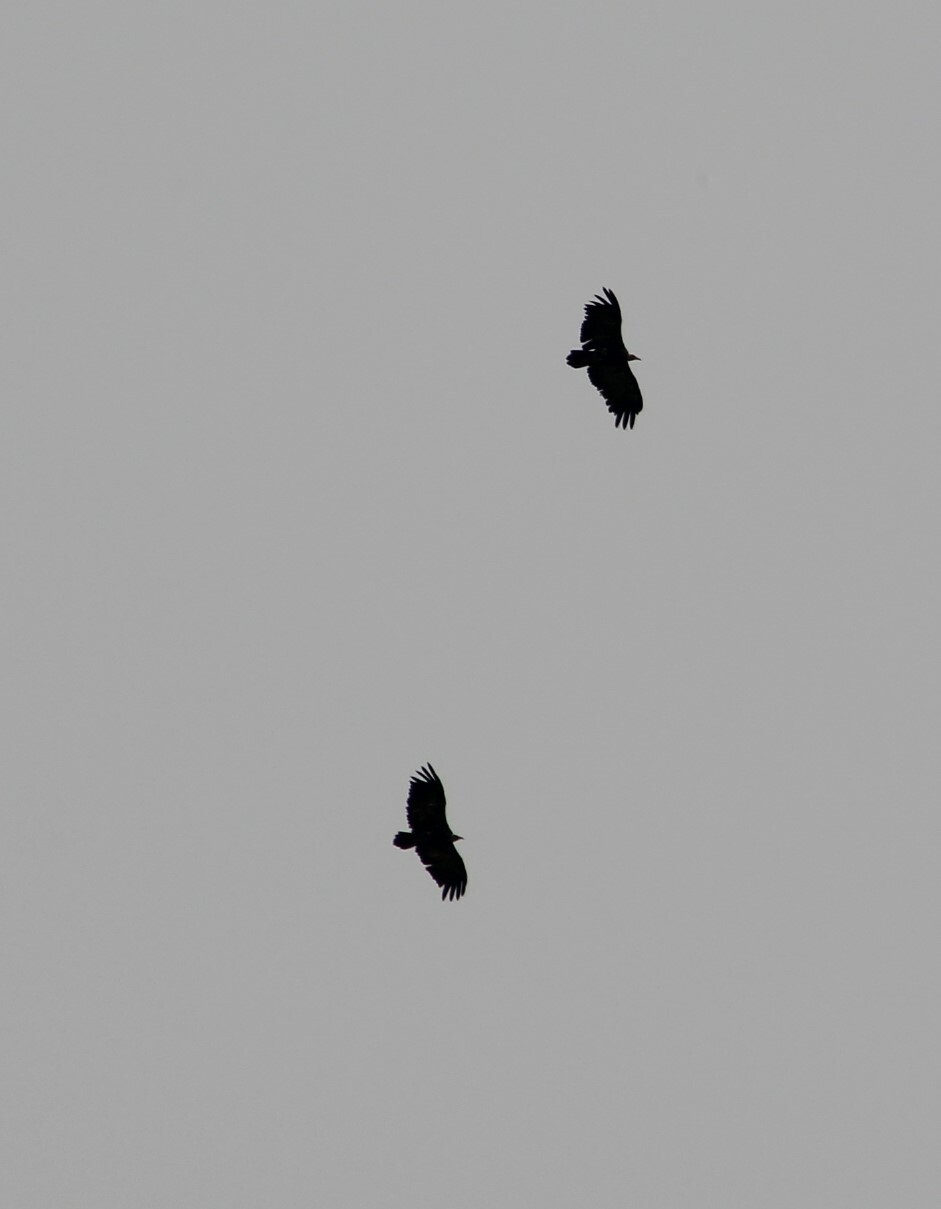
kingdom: Animalia
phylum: Chordata
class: Aves
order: Accipitriformes
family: Accipitridae
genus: Necrosyrtes
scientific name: Necrosyrtes monachus
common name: Hooded vulture
